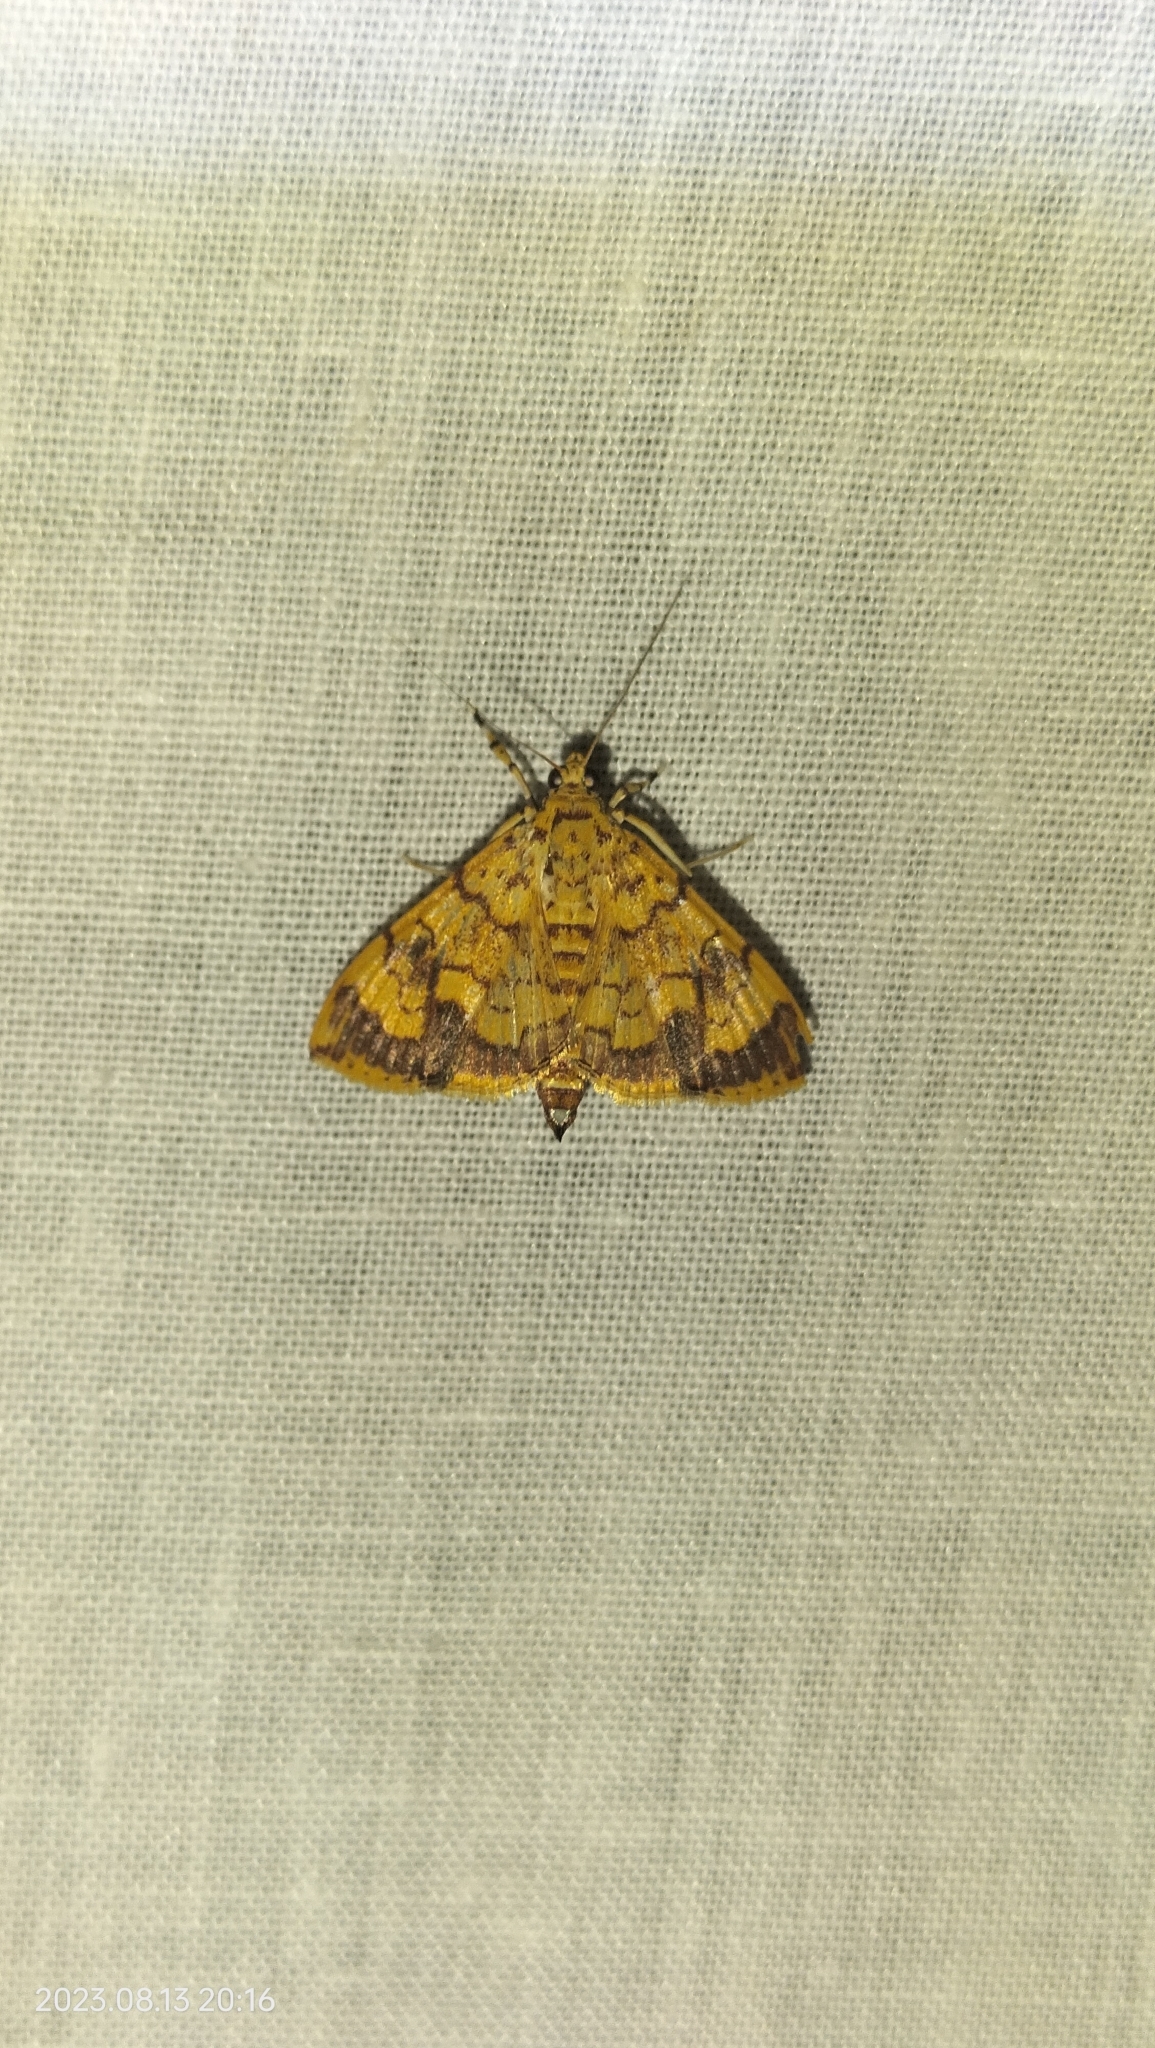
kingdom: Animalia
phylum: Arthropoda
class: Insecta
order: Lepidoptera
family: Crambidae
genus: Portentomorpha
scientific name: Portentomorpha xanthialis
